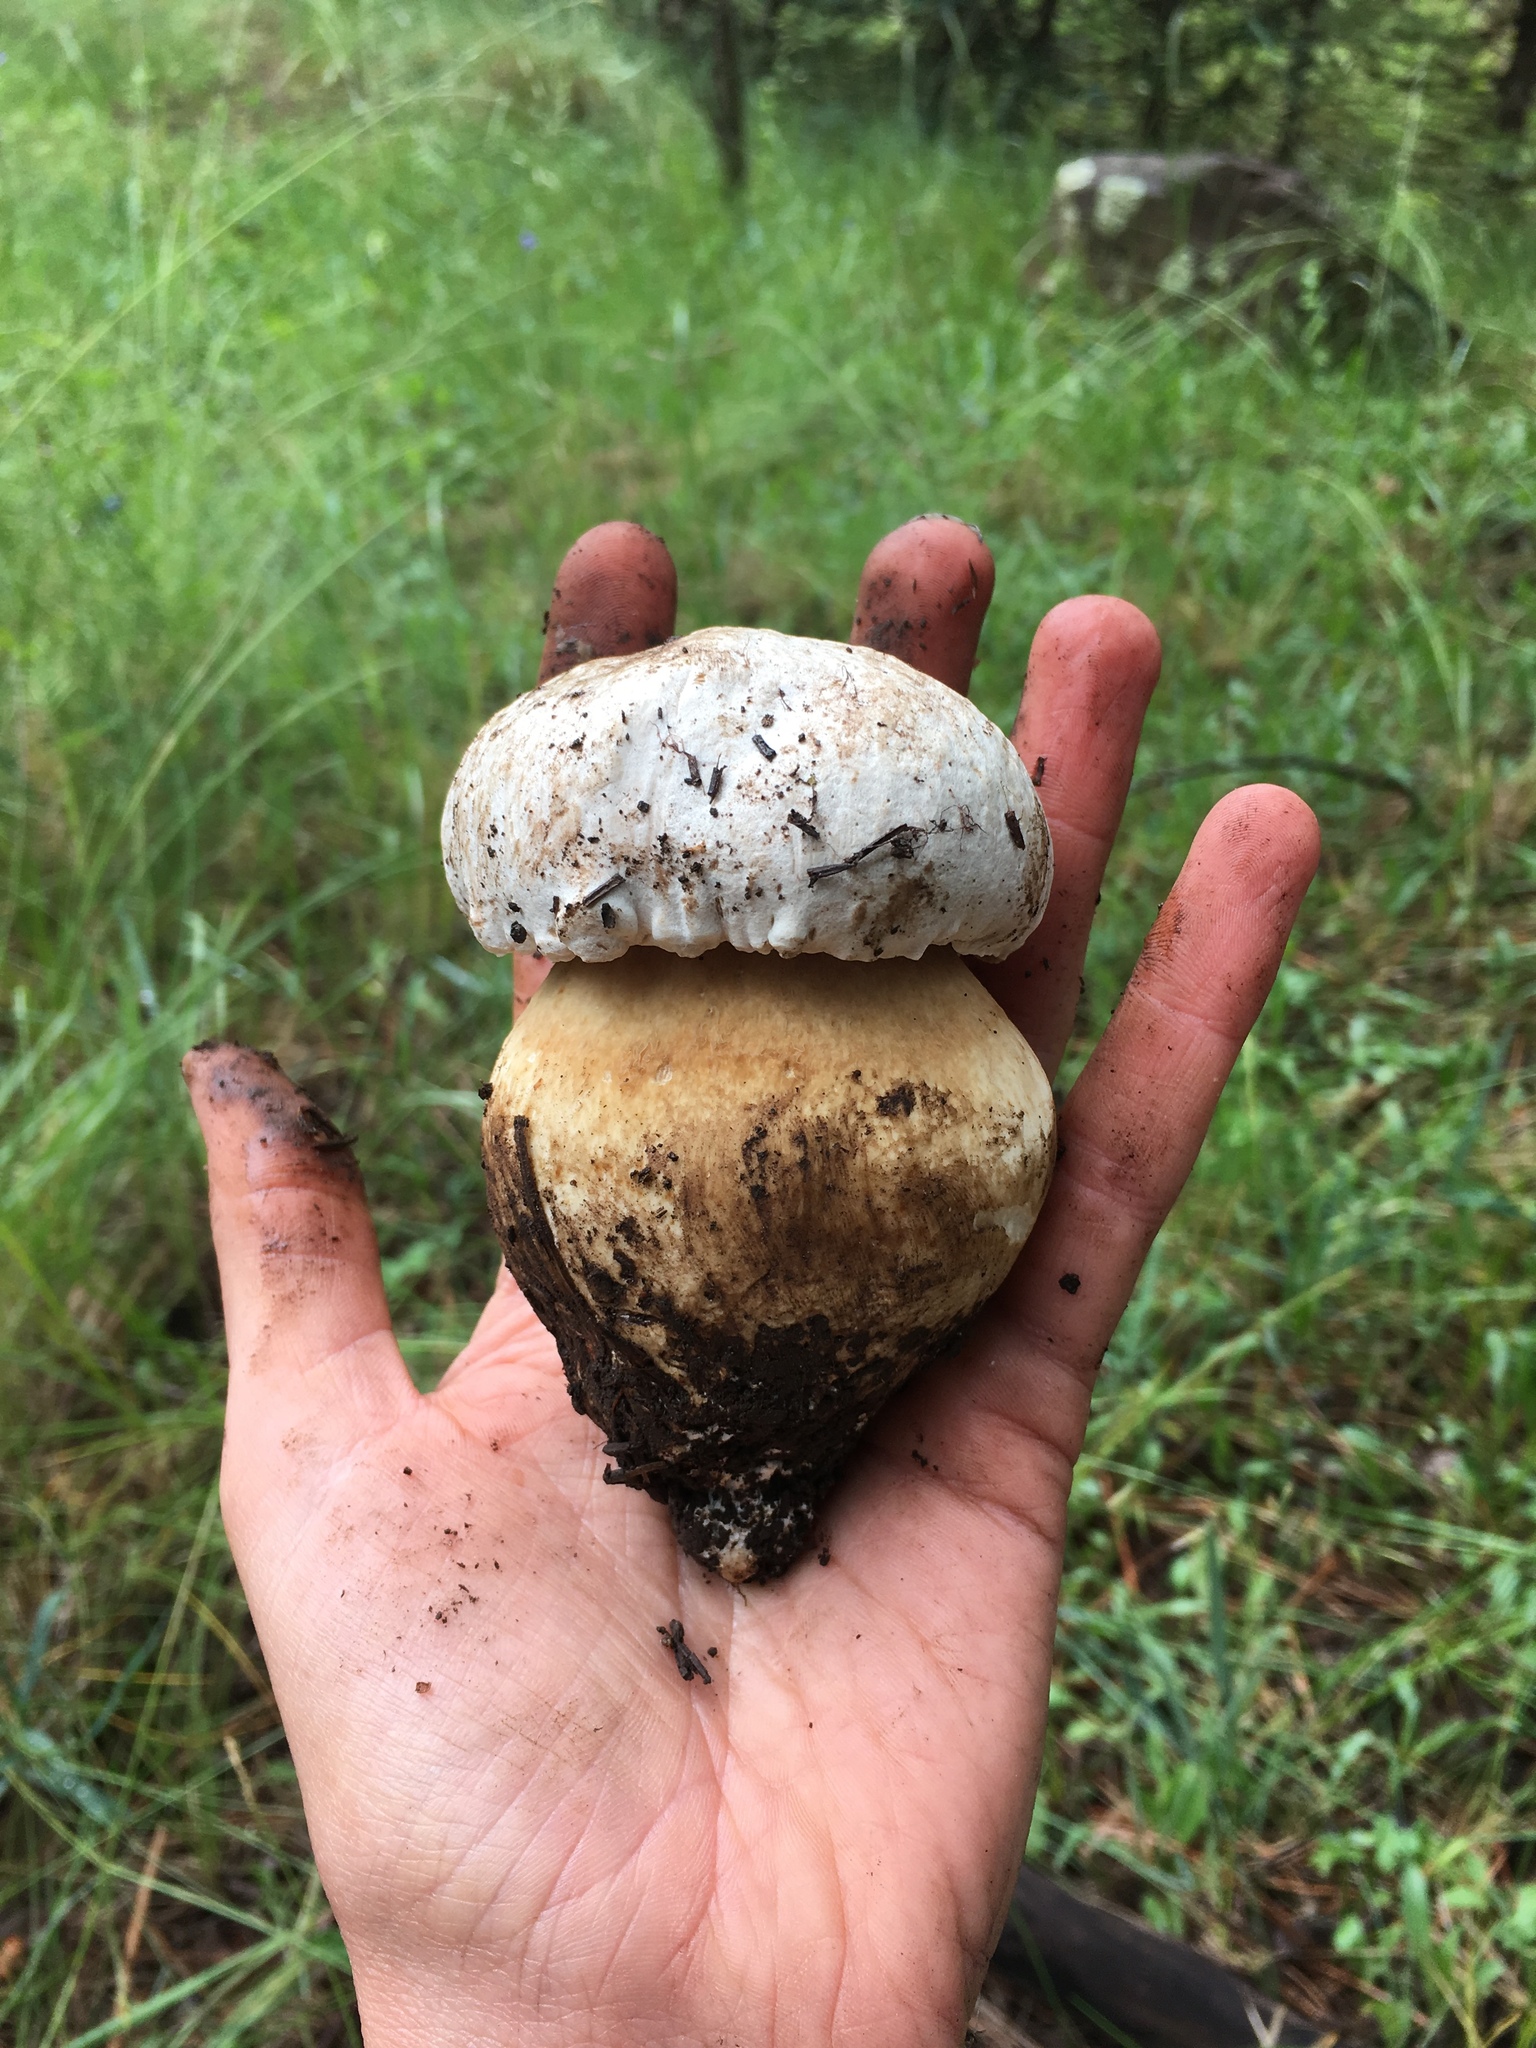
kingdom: Fungi
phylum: Basidiomycota
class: Agaricomycetes
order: Boletales
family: Boletaceae
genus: Boletus
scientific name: Boletus barrowsii
